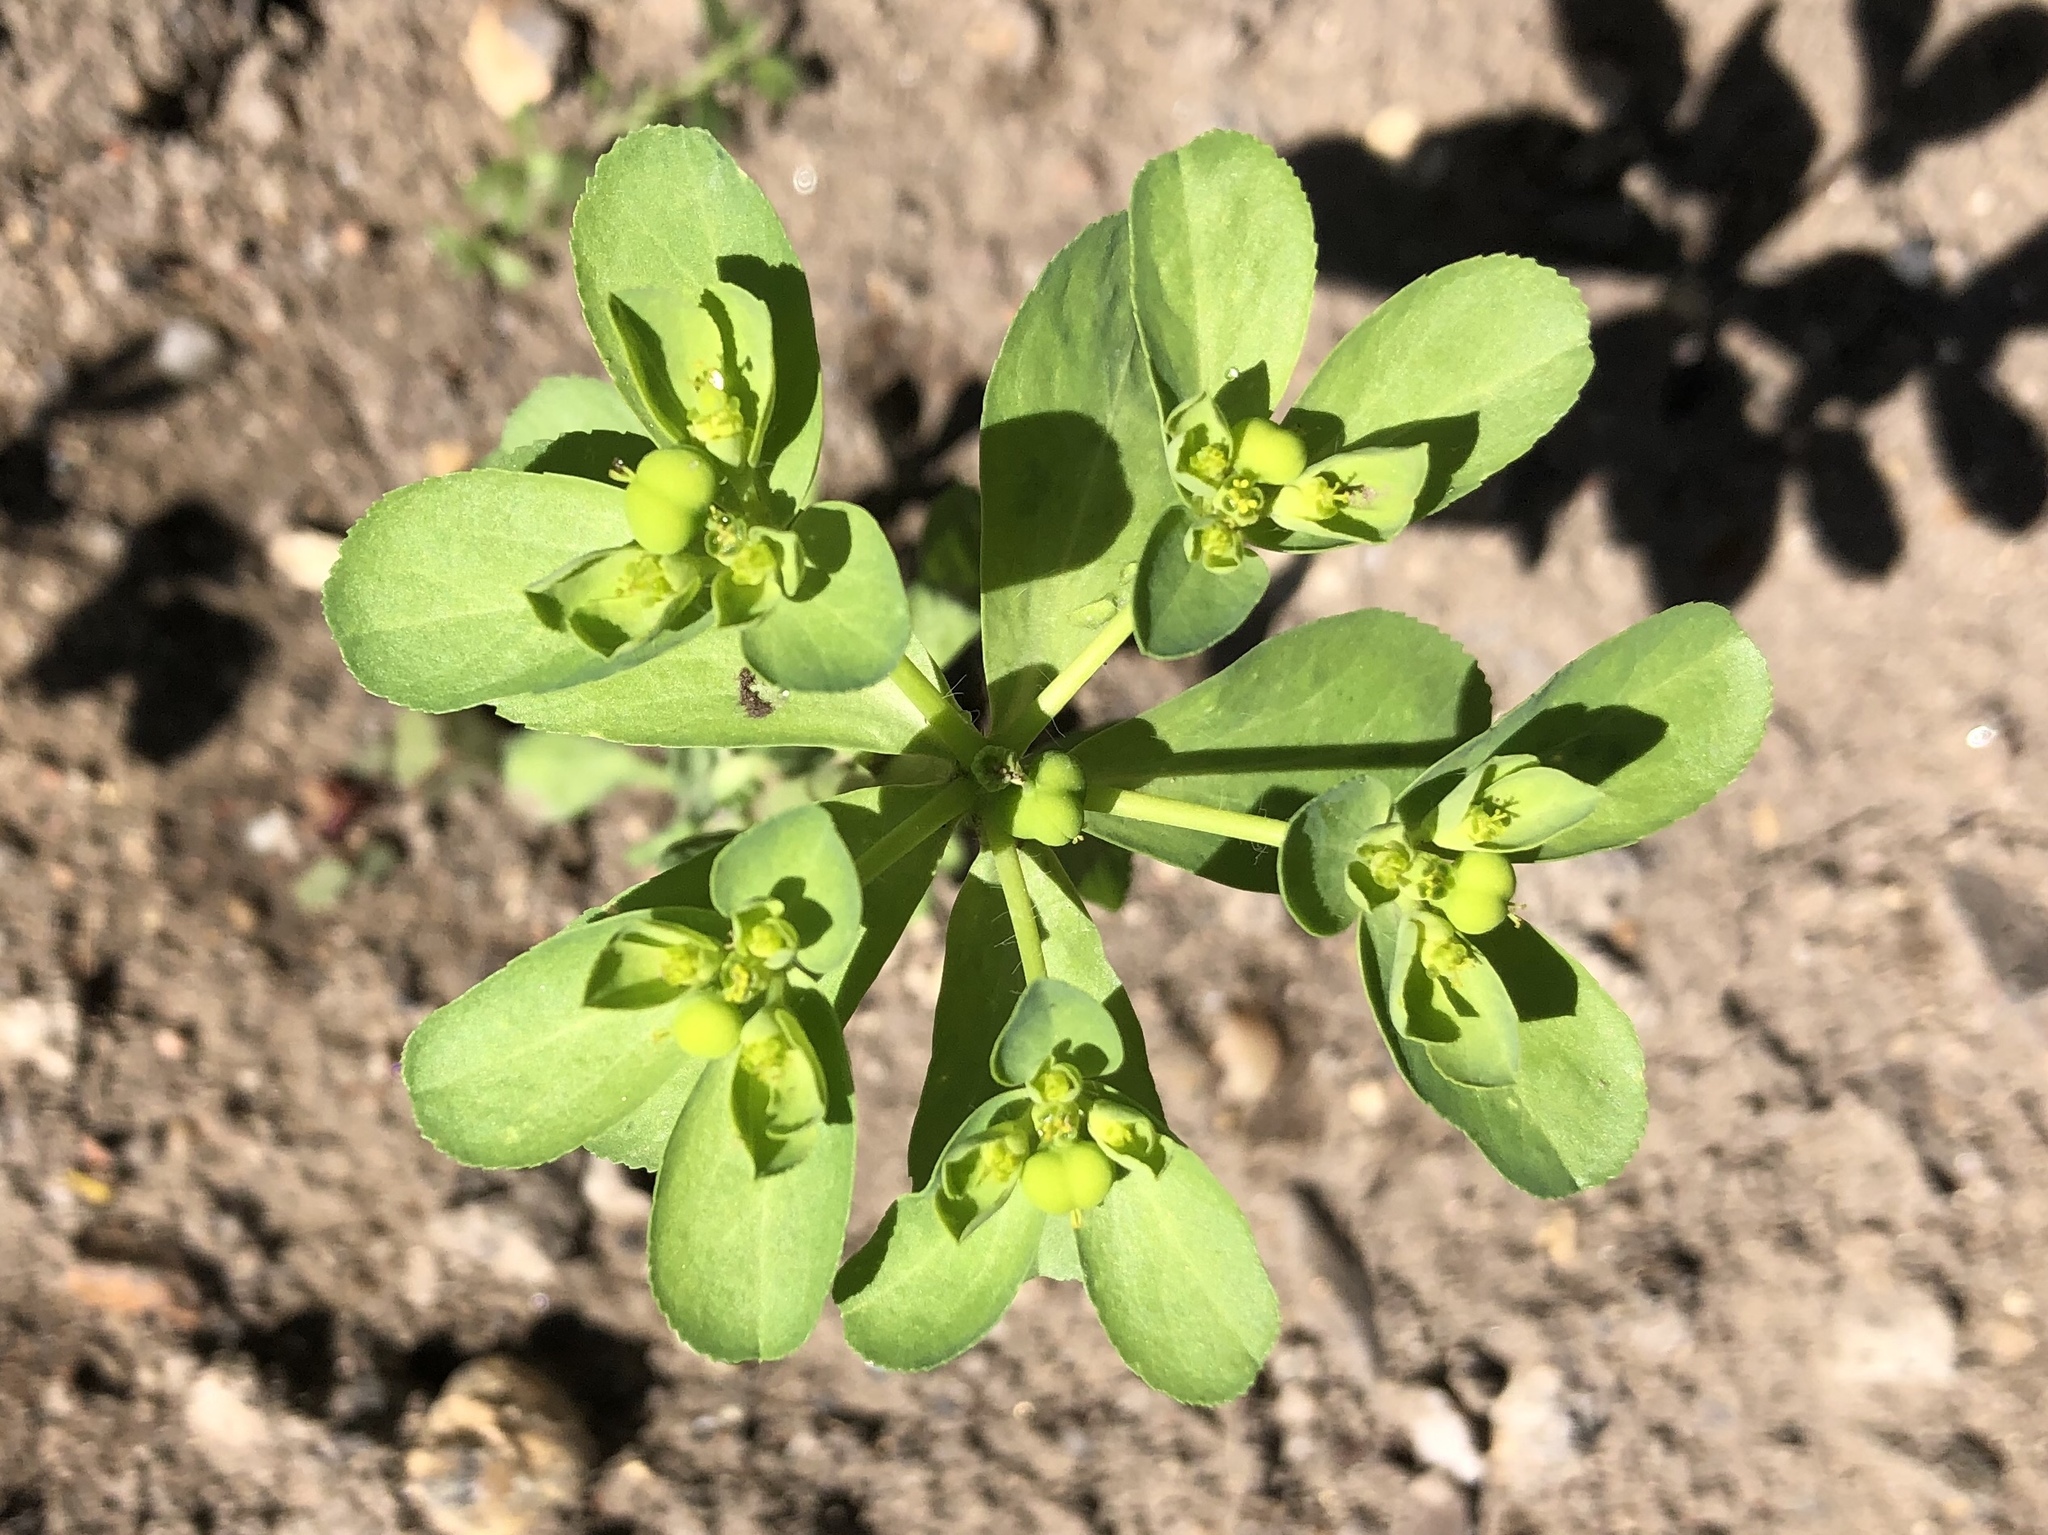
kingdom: Plantae
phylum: Tracheophyta
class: Magnoliopsida
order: Malpighiales
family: Euphorbiaceae
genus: Euphorbia
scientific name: Euphorbia helioscopia
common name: Sun spurge
